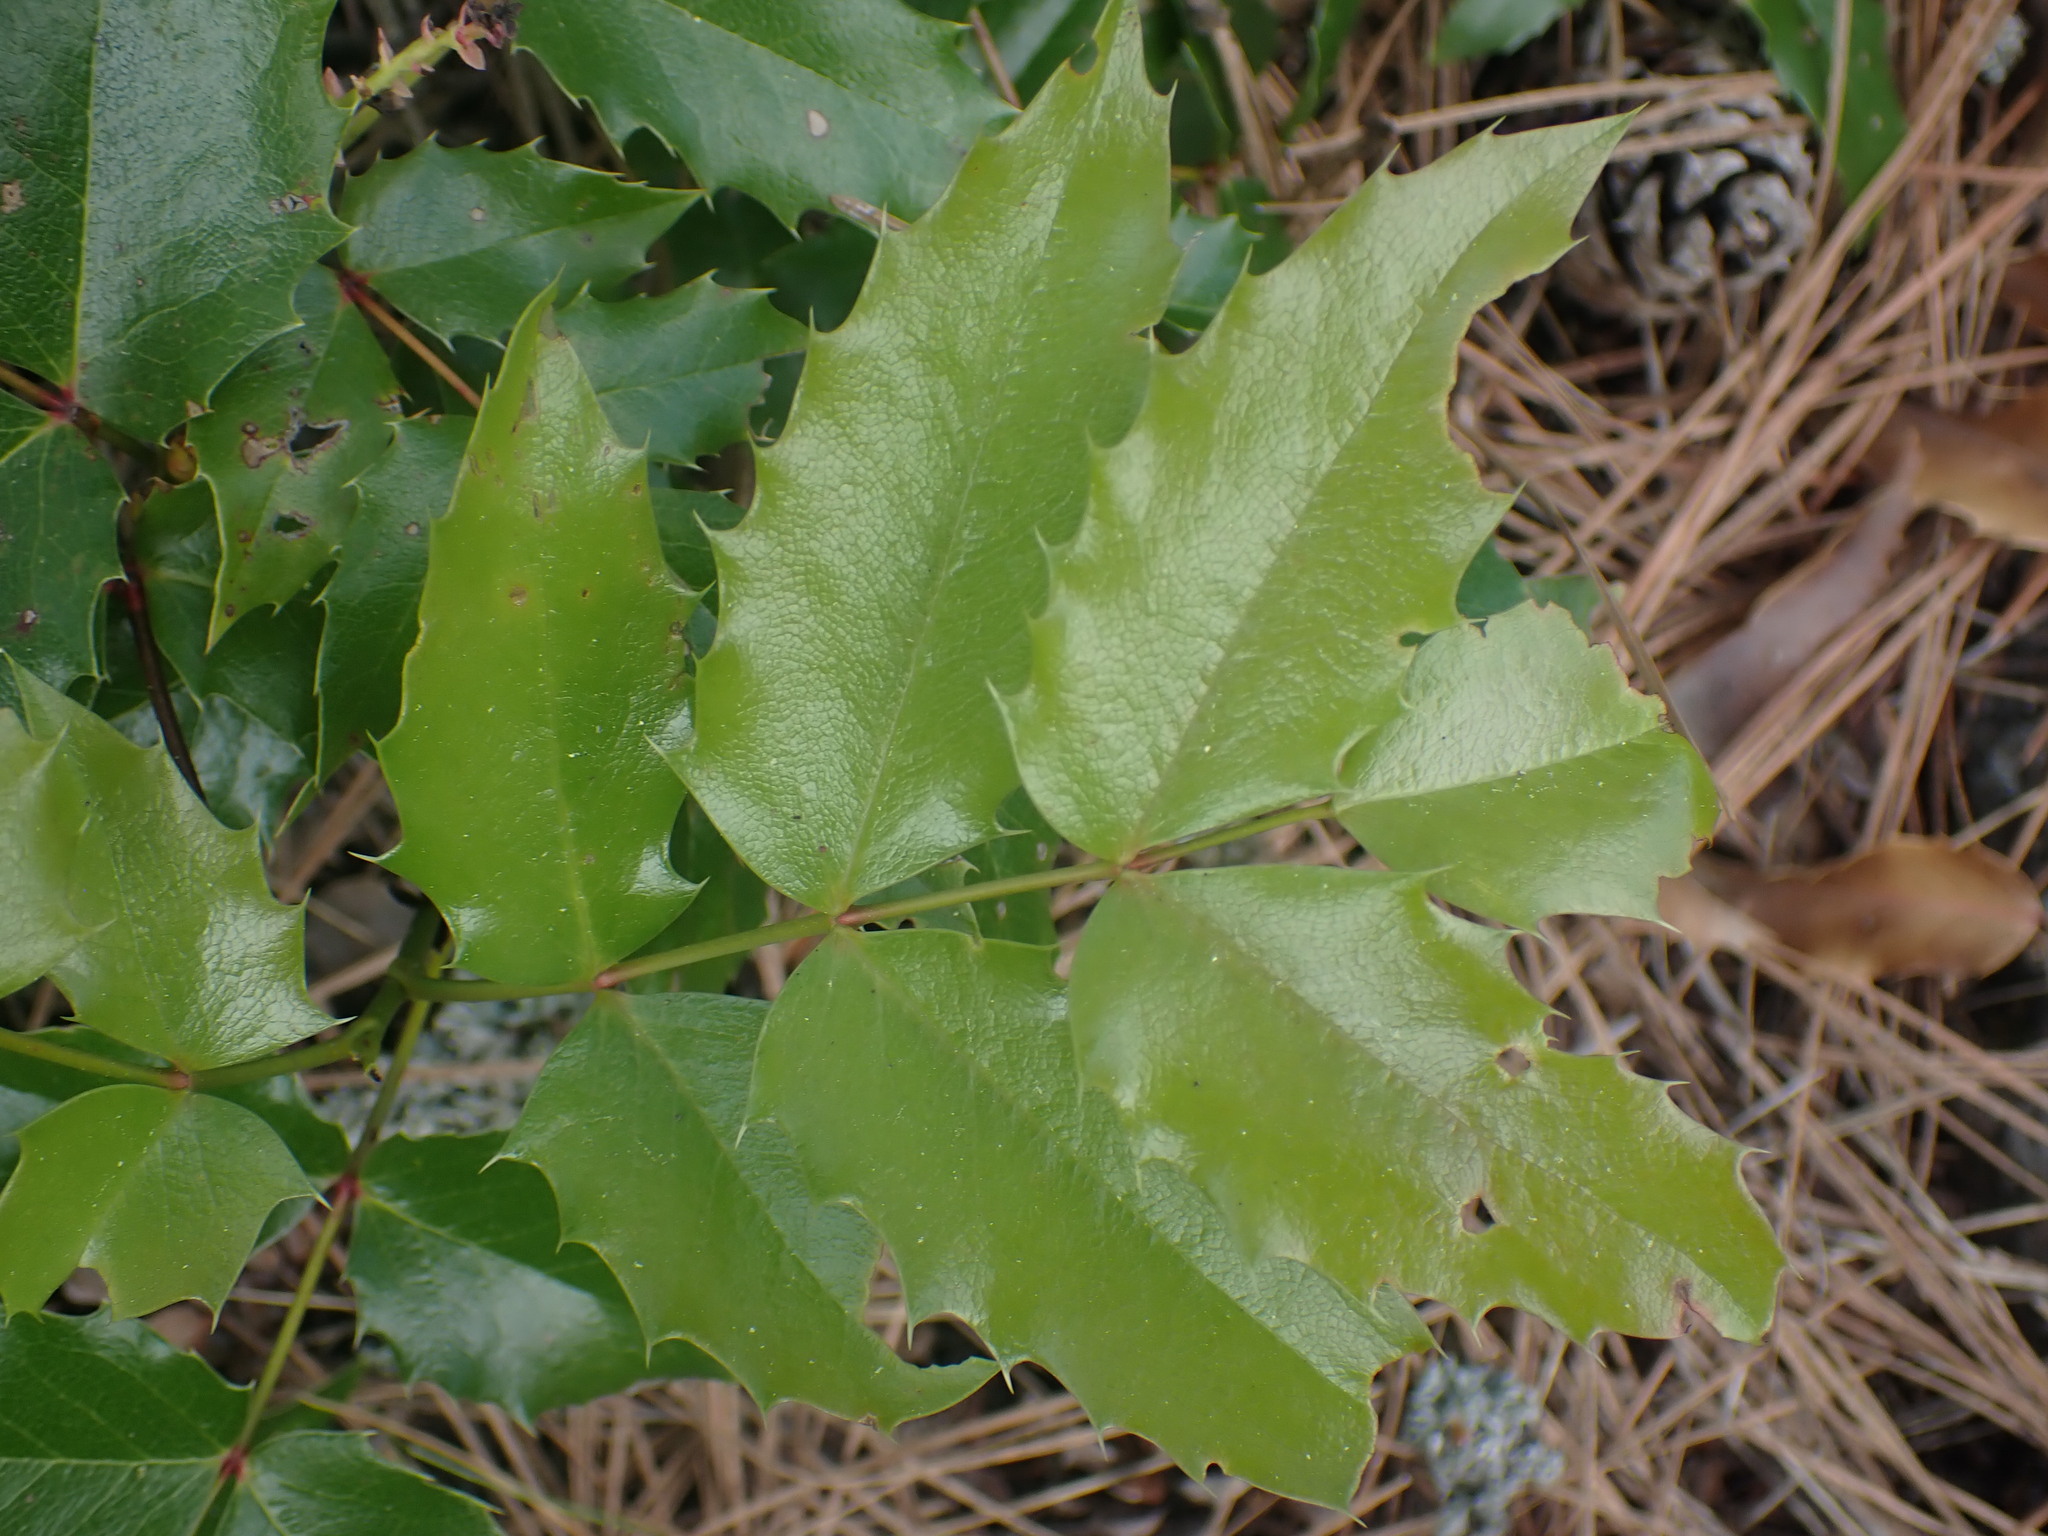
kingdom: Plantae
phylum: Tracheophyta
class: Magnoliopsida
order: Ranunculales
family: Berberidaceae
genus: Mahonia
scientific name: Mahonia aquifolium
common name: Oregon-grape
